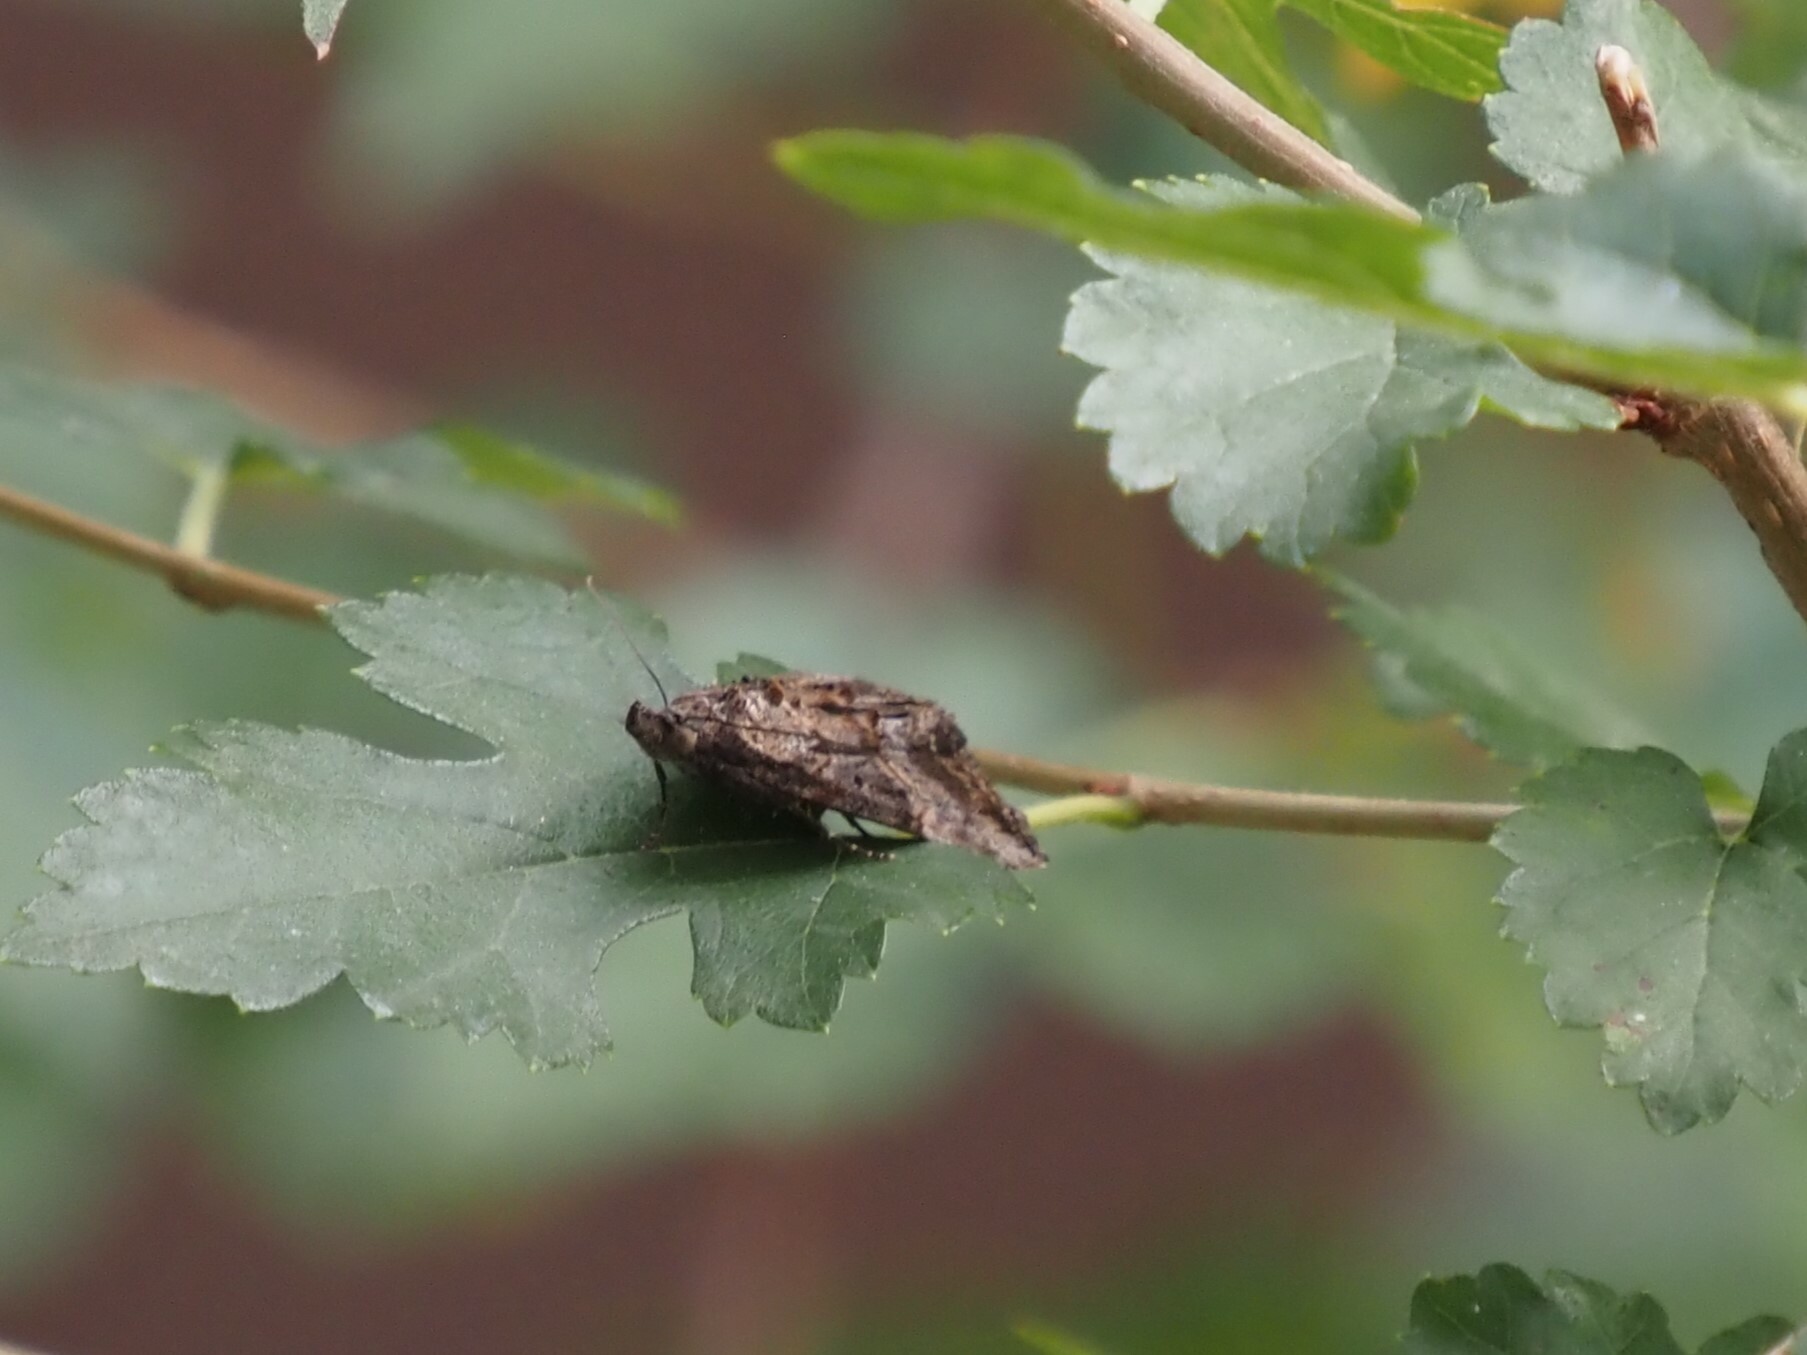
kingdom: Animalia
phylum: Arthropoda
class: Insecta
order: Lepidoptera
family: Erebidae
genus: Hypena
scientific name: Hypena scabra
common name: Green cloverworm
